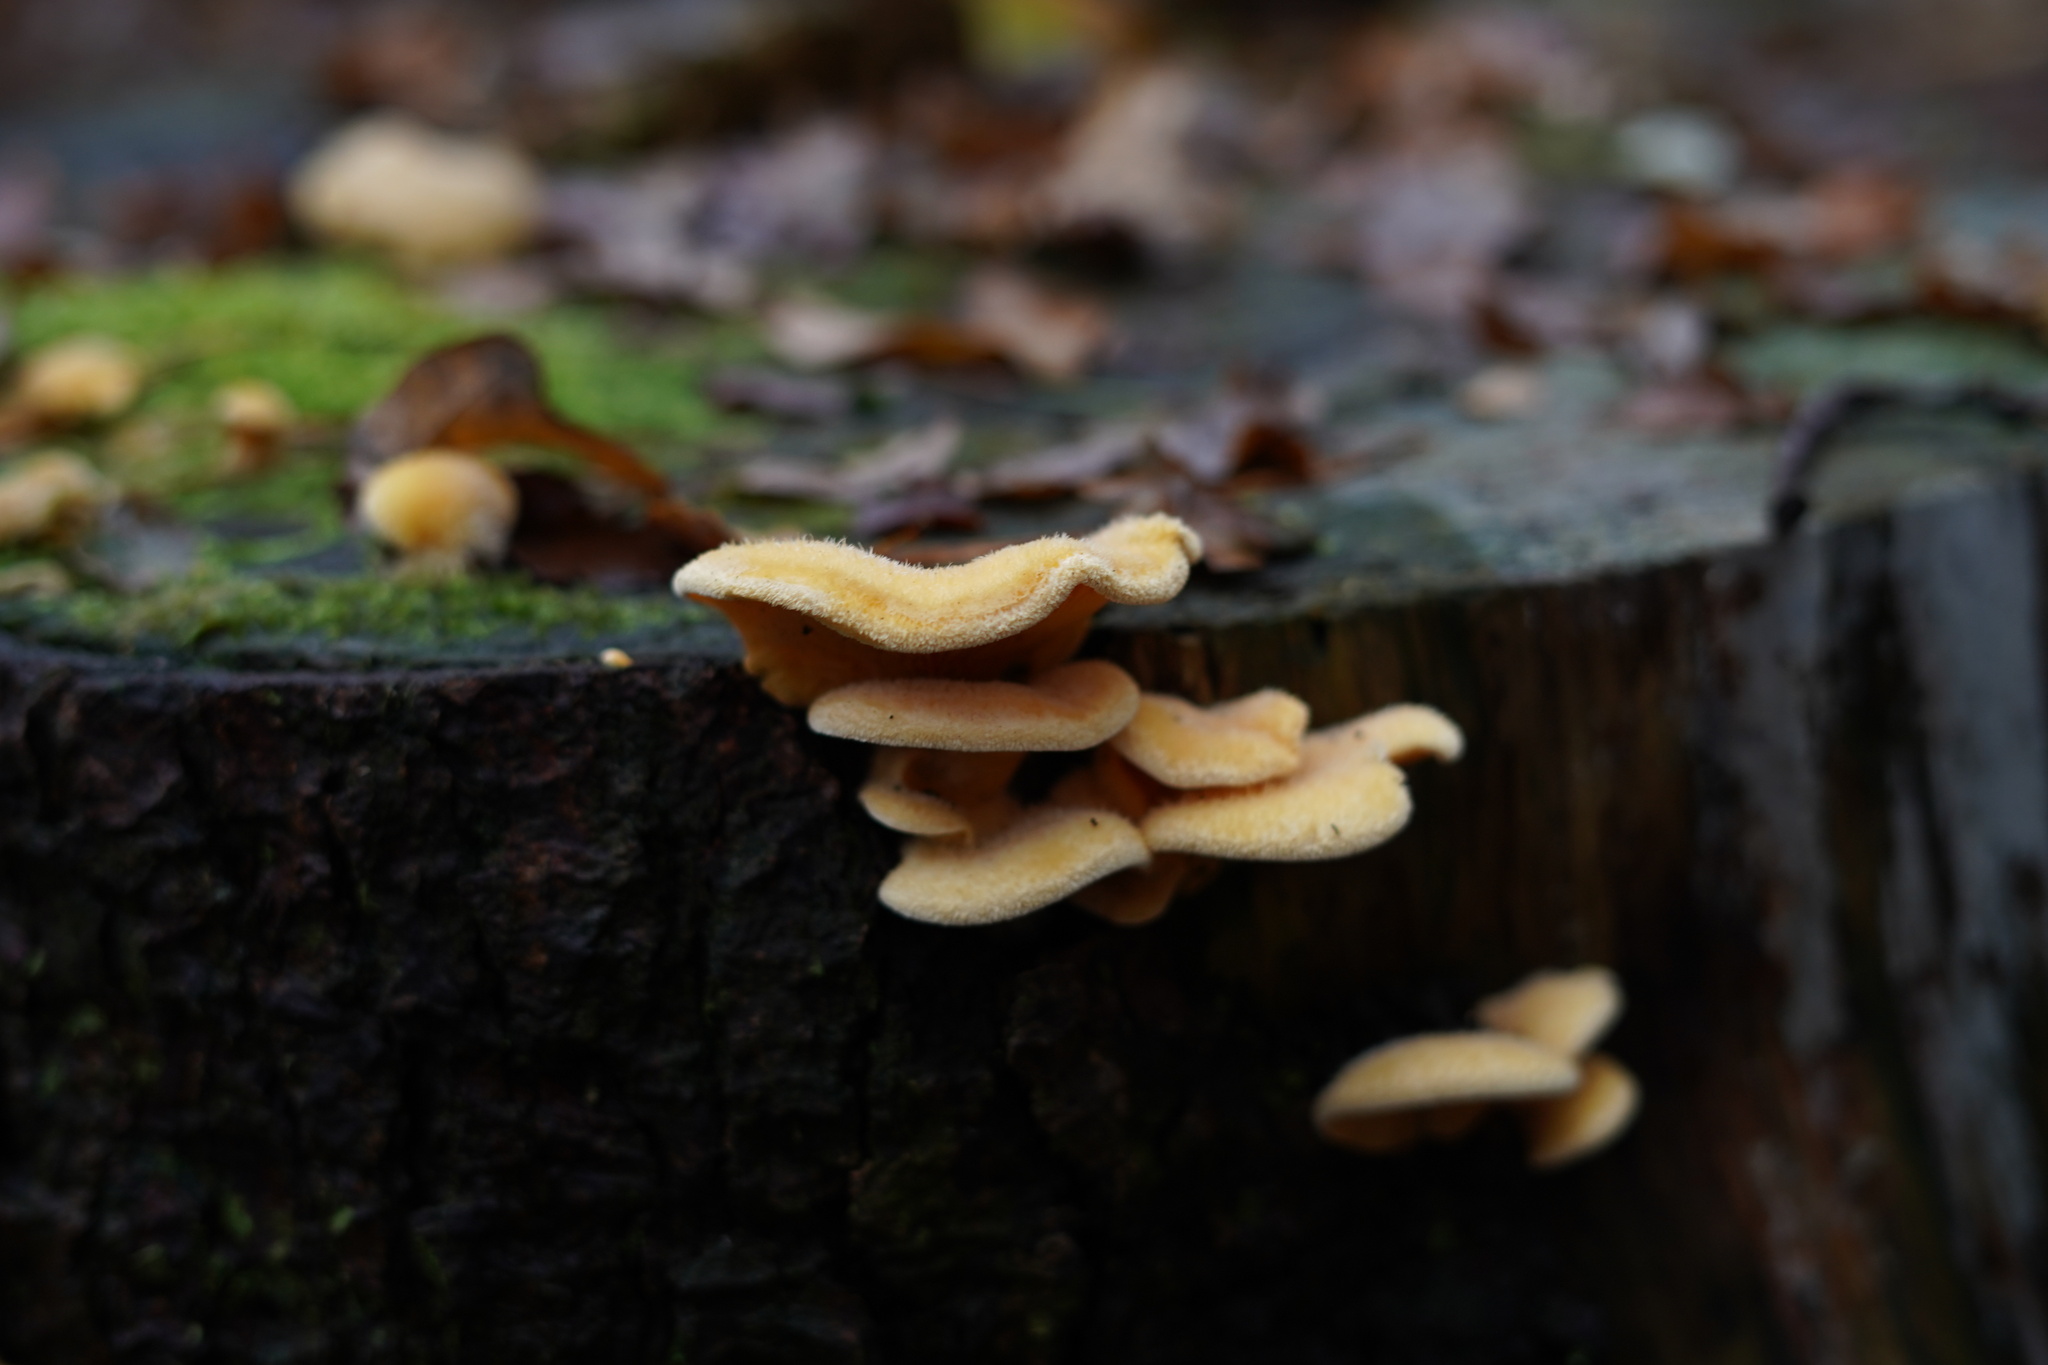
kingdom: Fungi
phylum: Basidiomycota
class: Agaricomycetes
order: Agaricales
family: Phyllotopsidaceae
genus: Phyllotopsis
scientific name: Phyllotopsis nidulans
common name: Orange mock oyster
